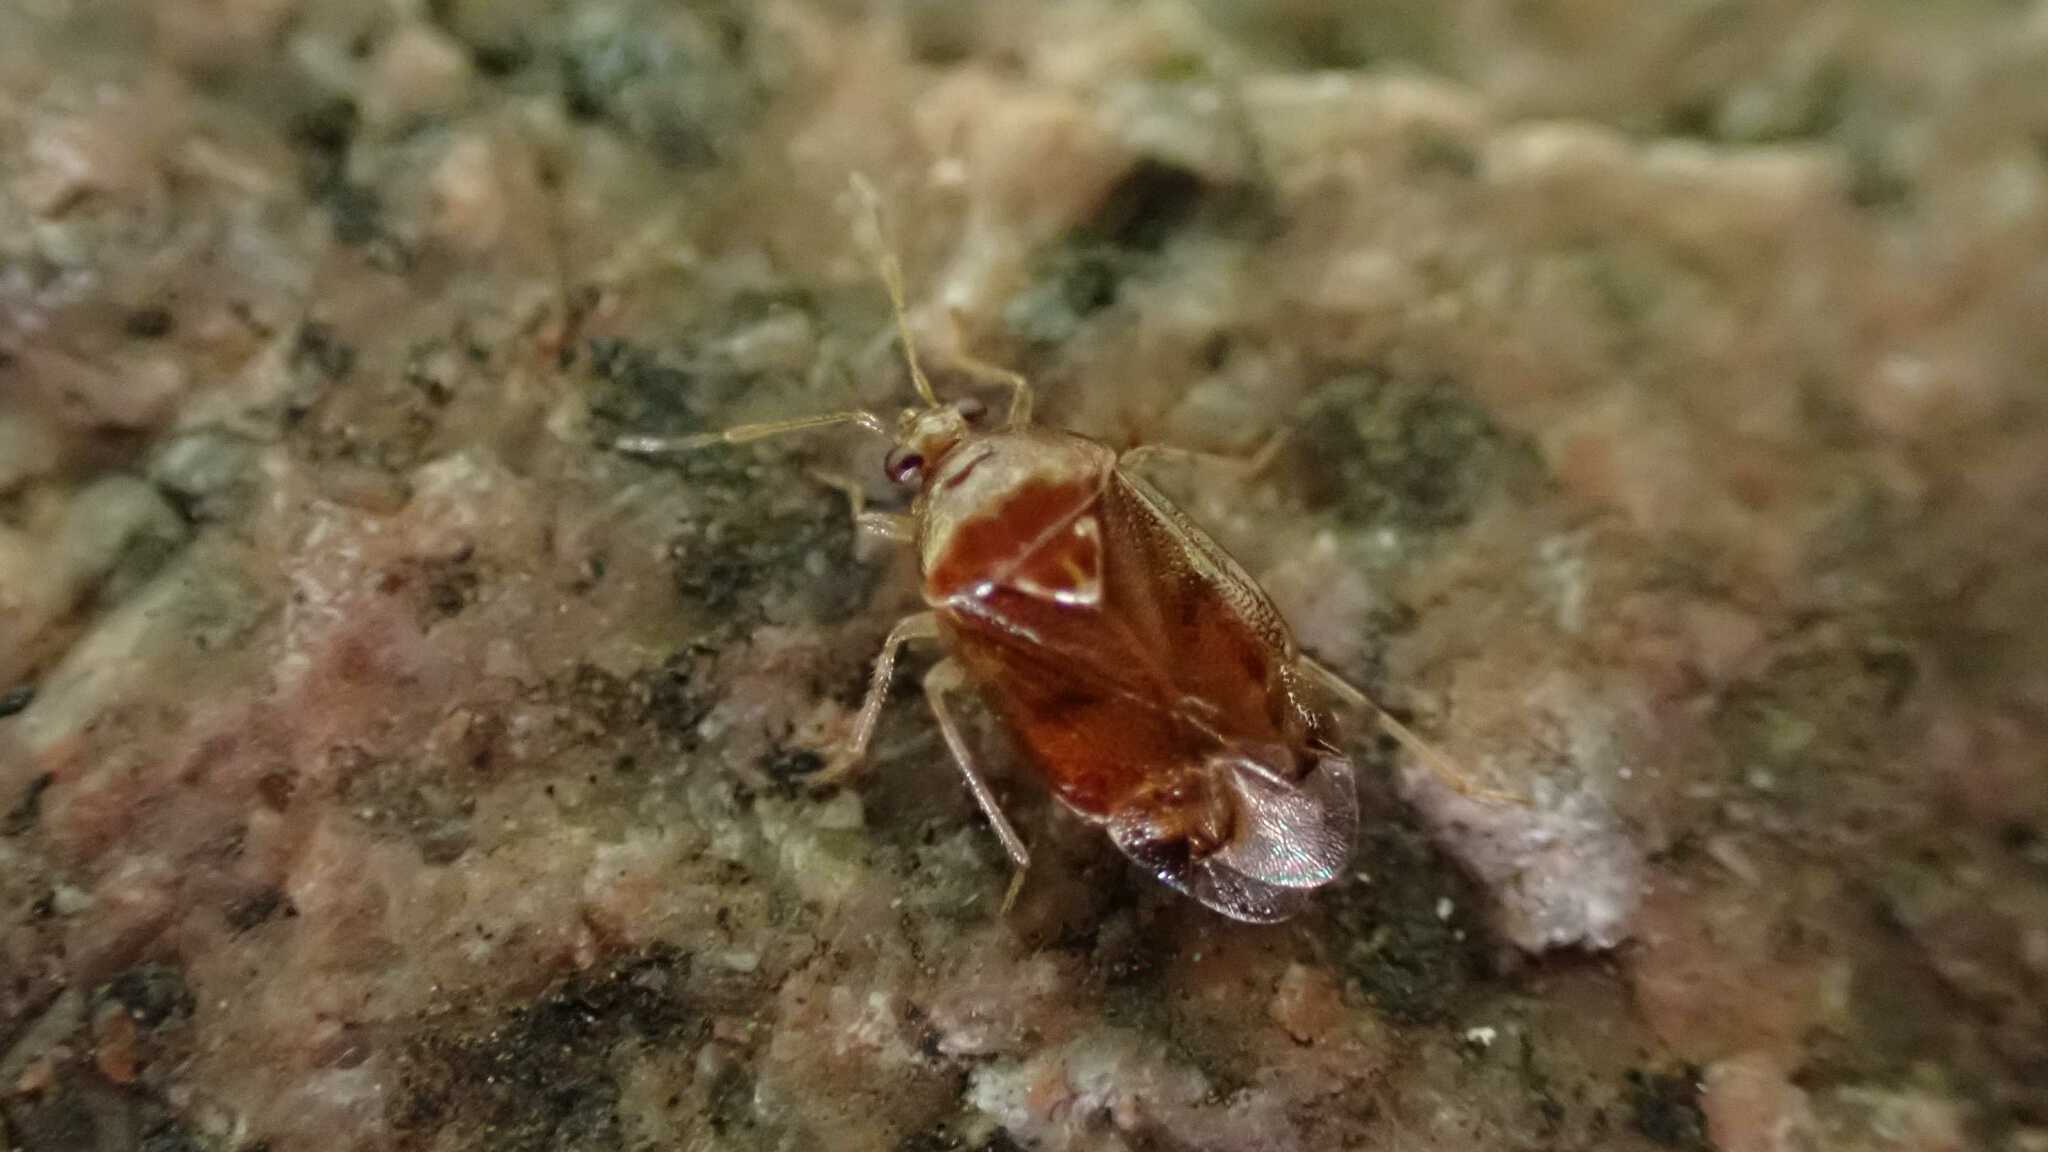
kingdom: Animalia
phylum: Arthropoda
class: Insecta
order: Hemiptera
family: Miridae
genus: Deraeocoris
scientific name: Deraeocoris lutescens
